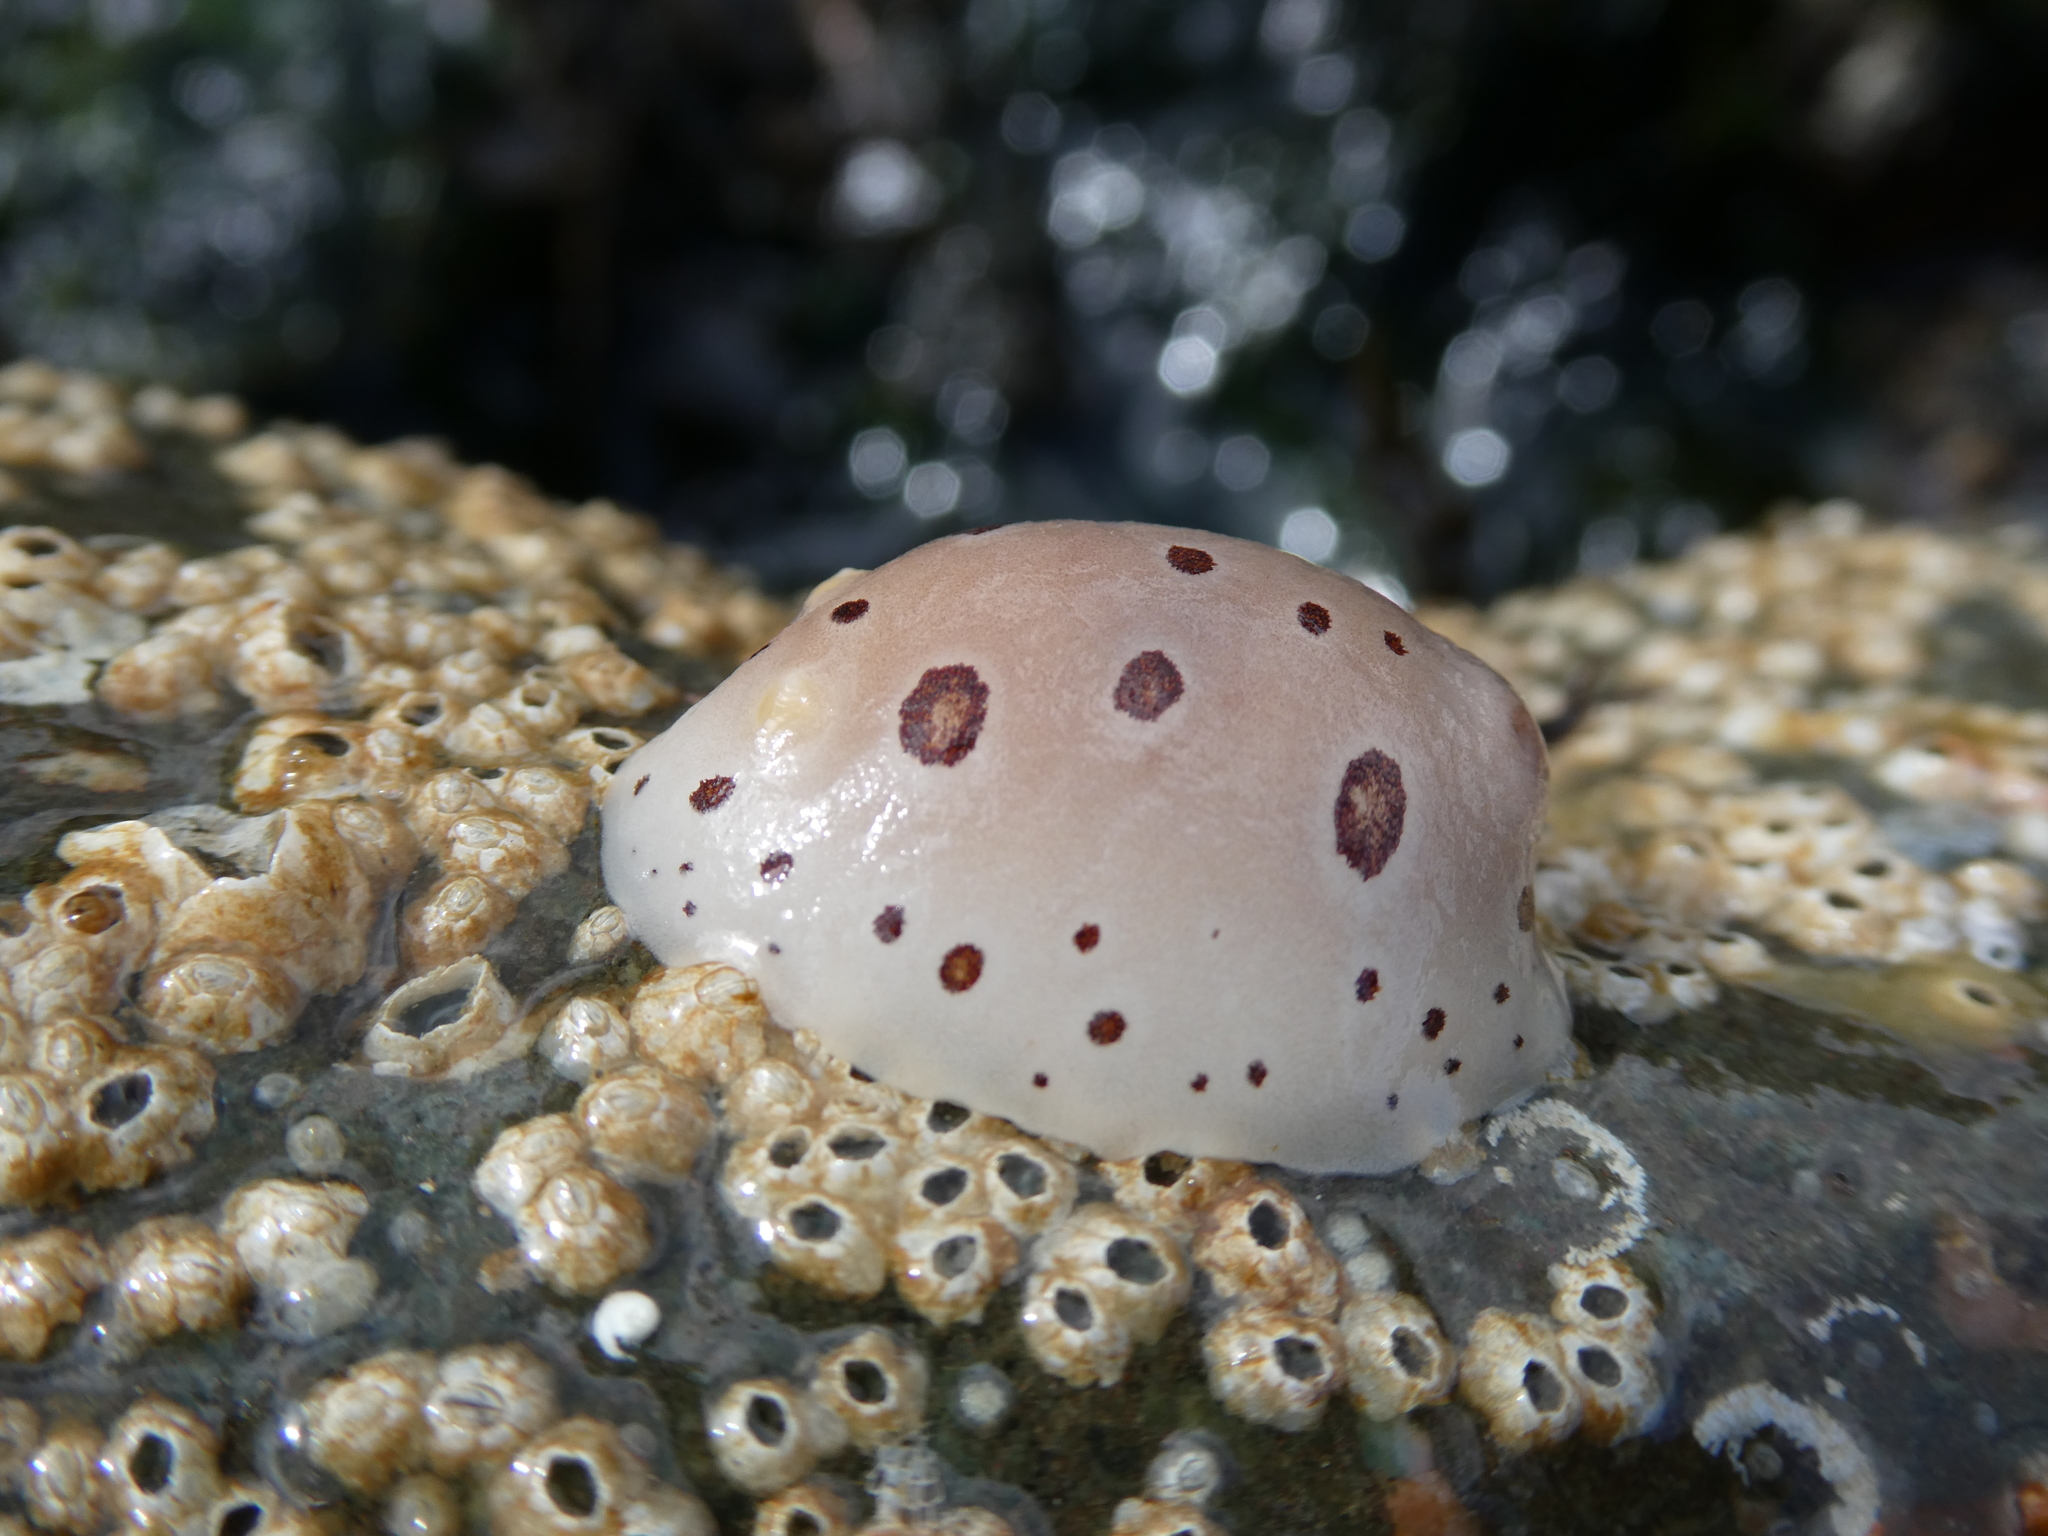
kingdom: Animalia
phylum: Mollusca
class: Gastropoda
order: Nudibranchia
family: Discodorididae
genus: Diaulula
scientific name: Diaulula odonoghuei
